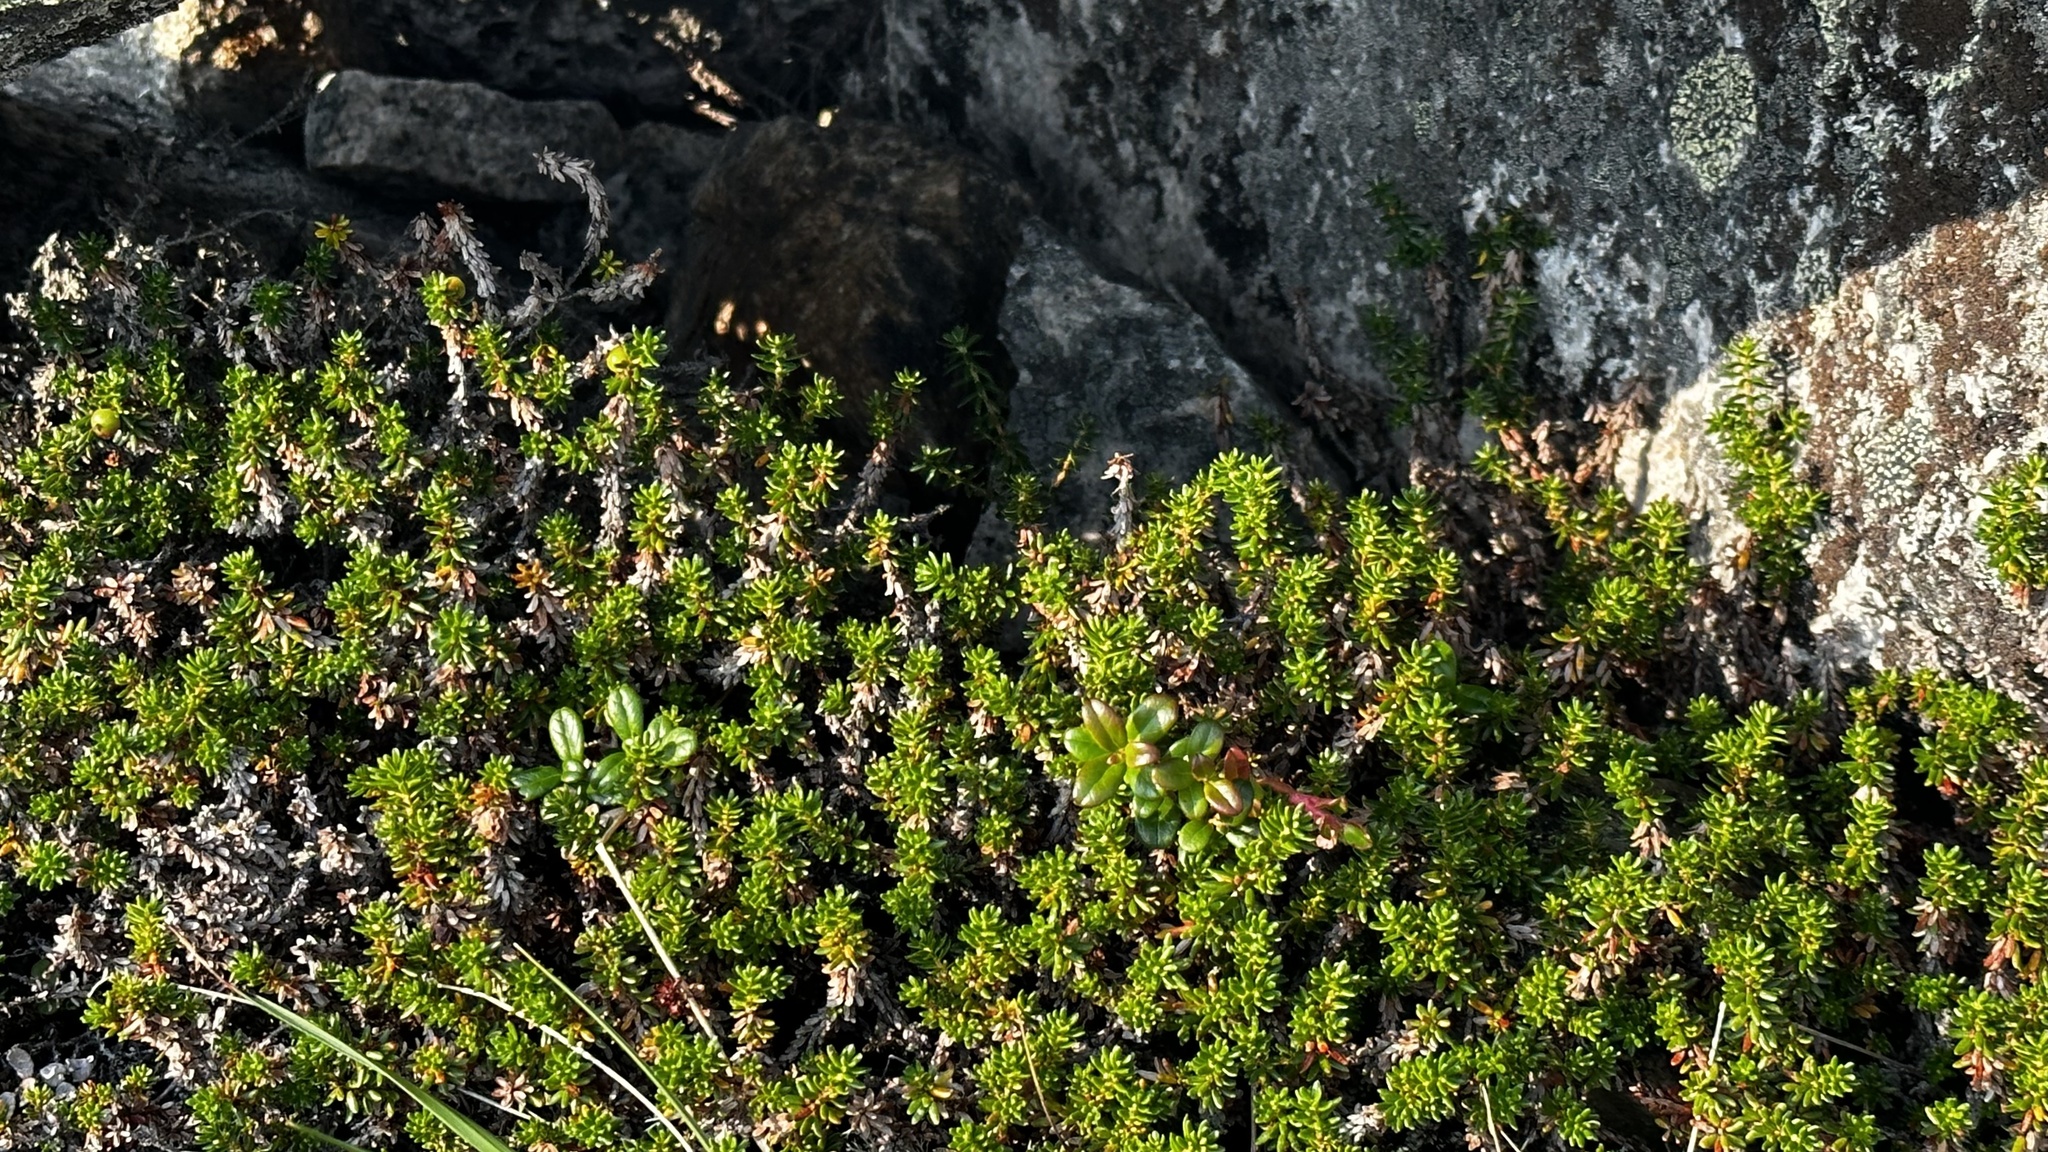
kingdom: Plantae
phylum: Tracheophyta
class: Magnoliopsida
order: Ericales
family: Ericaceae
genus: Empetrum
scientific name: Empetrum nigrum
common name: Black crowberry
